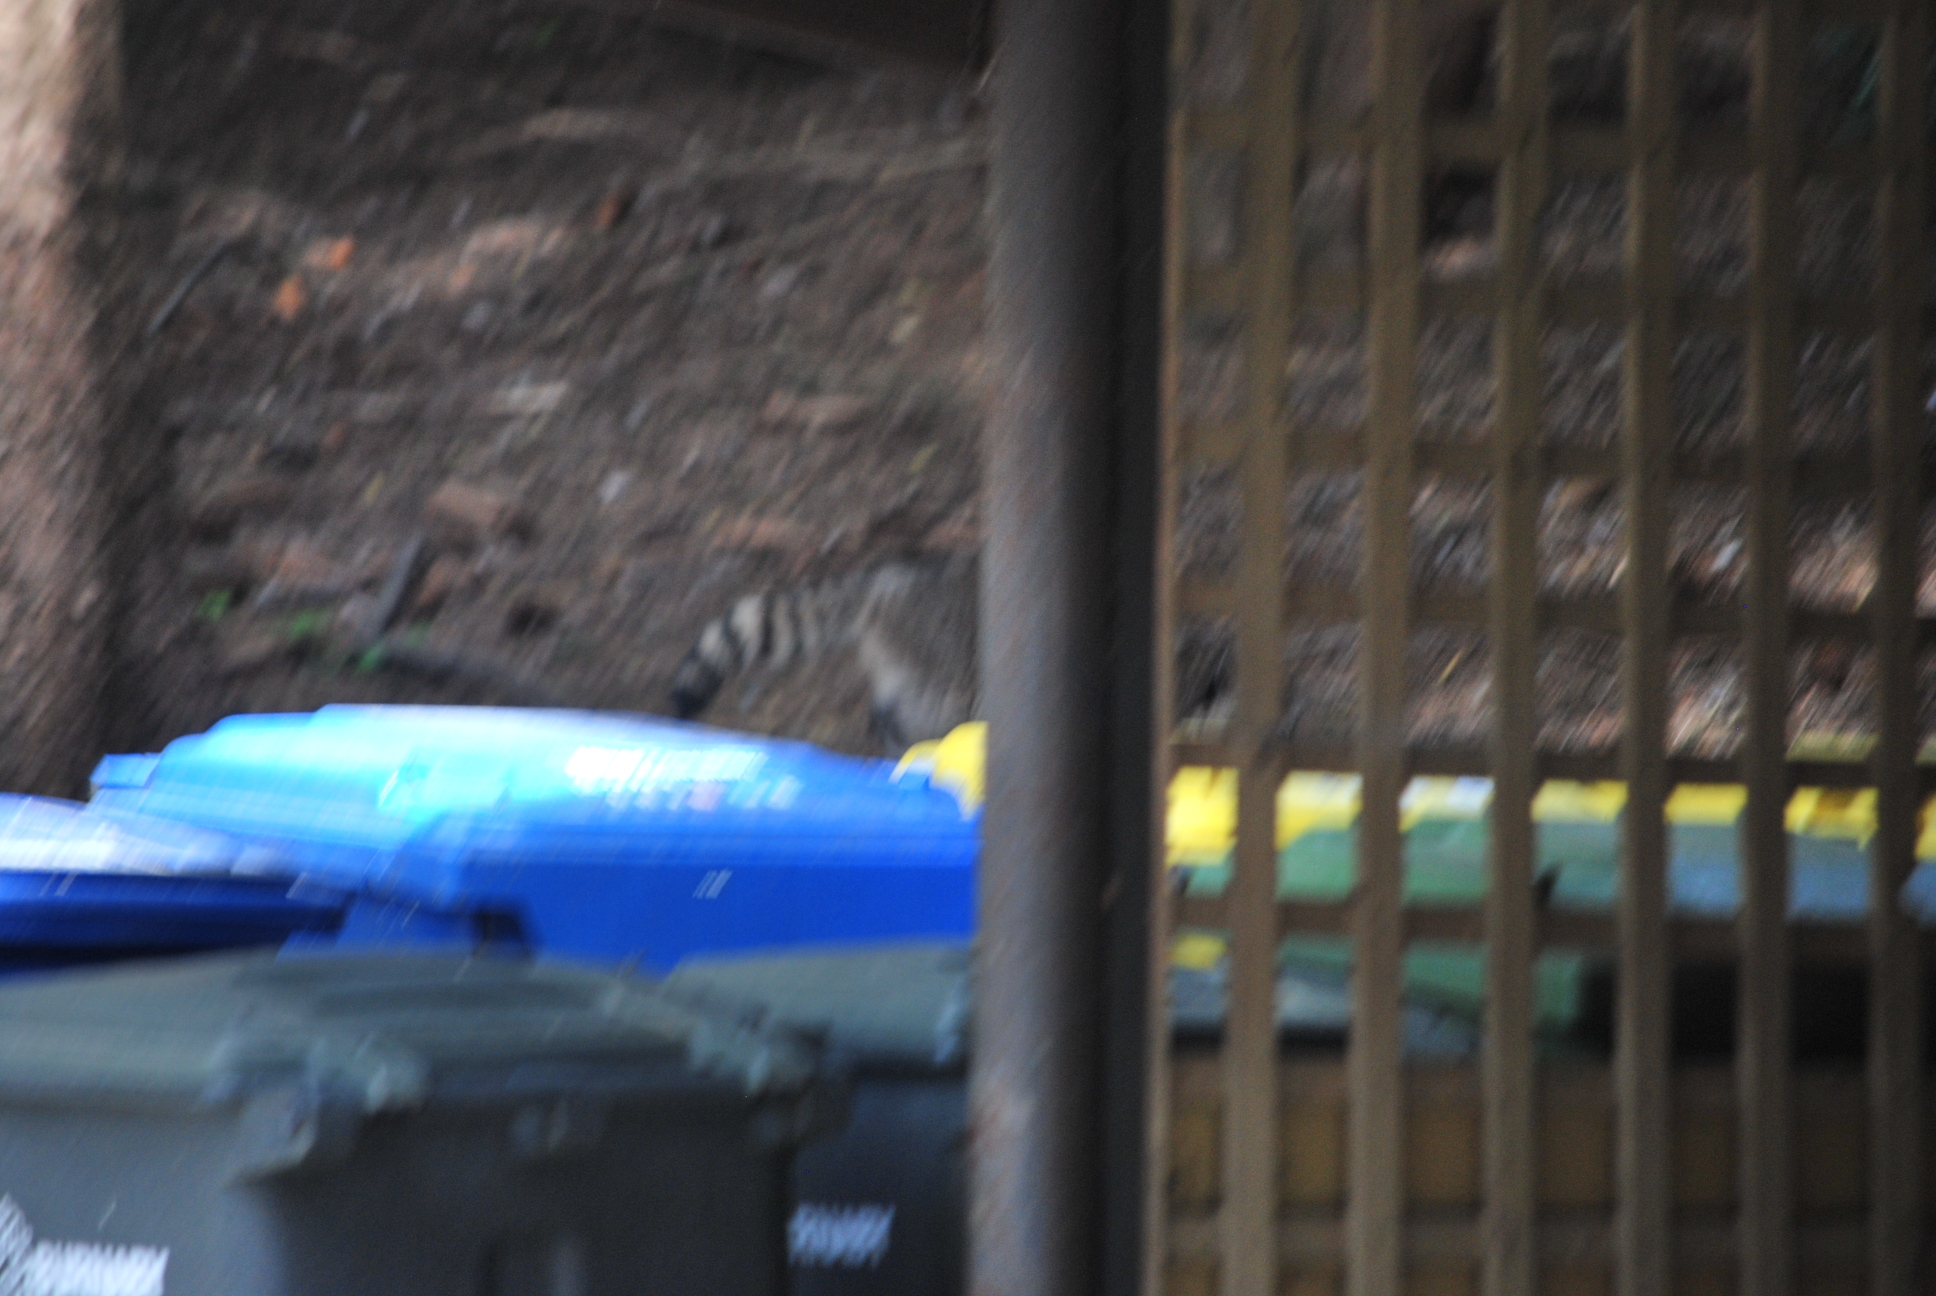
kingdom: Animalia
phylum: Chordata
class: Mammalia
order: Carnivora
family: Procyonidae
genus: Procyon
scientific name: Procyon lotor
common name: Raccoon
